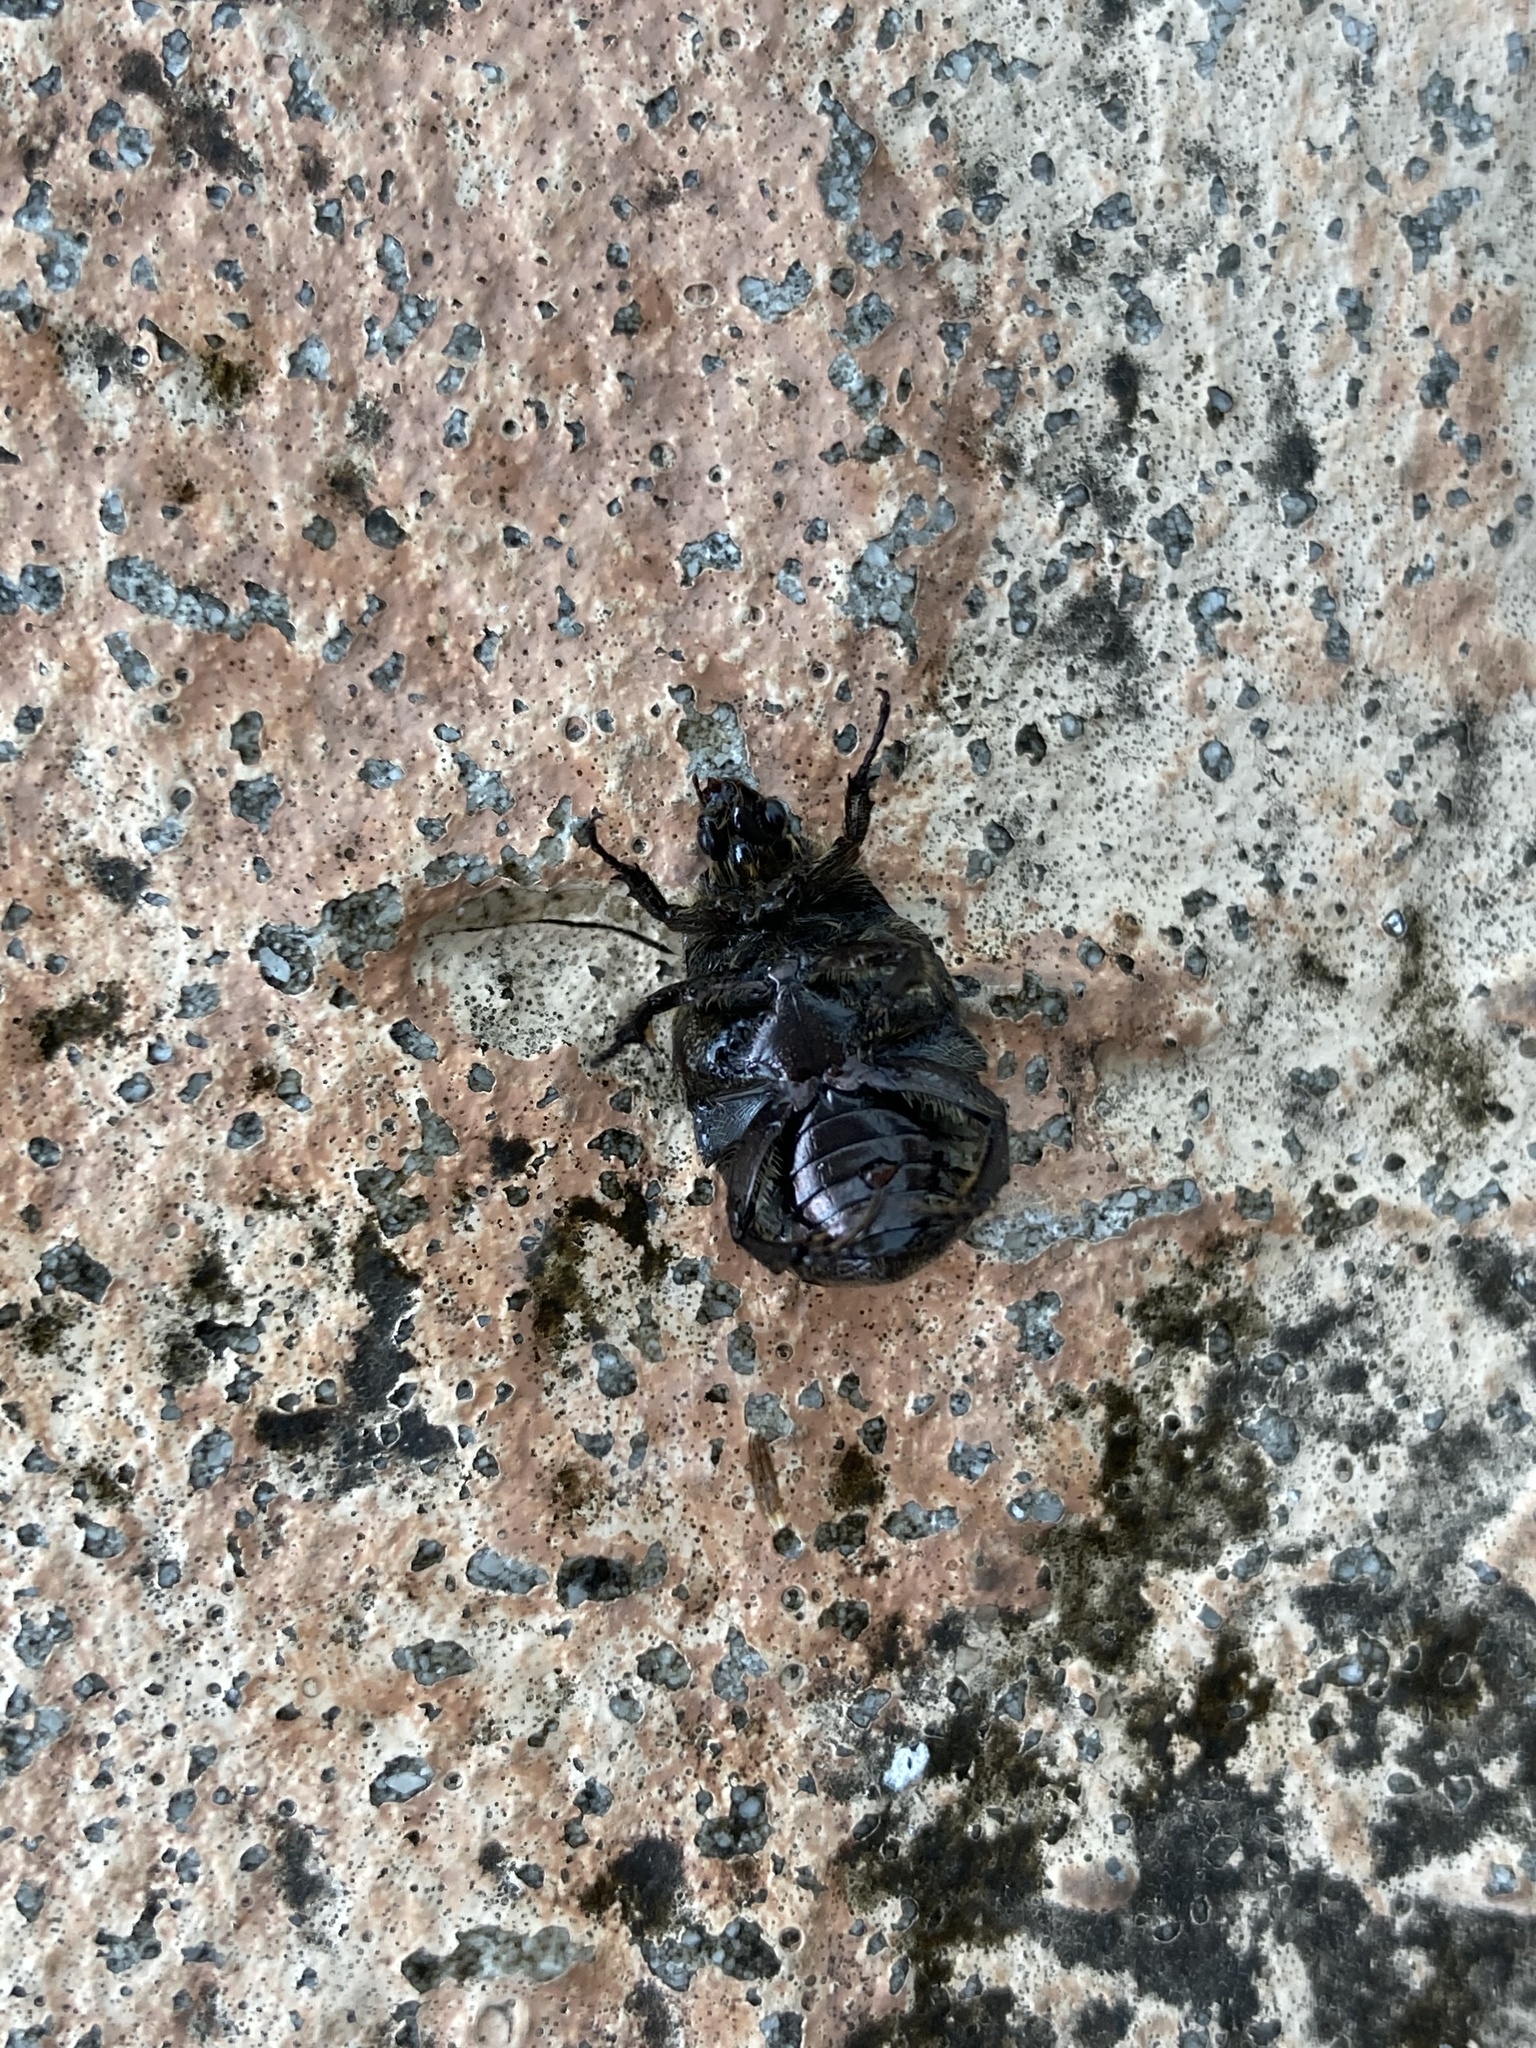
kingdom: Animalia
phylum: Arthropoda
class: Insecta
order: Coleoptera
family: Scarabaeidae
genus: Euphoria
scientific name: Euphoria sepulcralis
